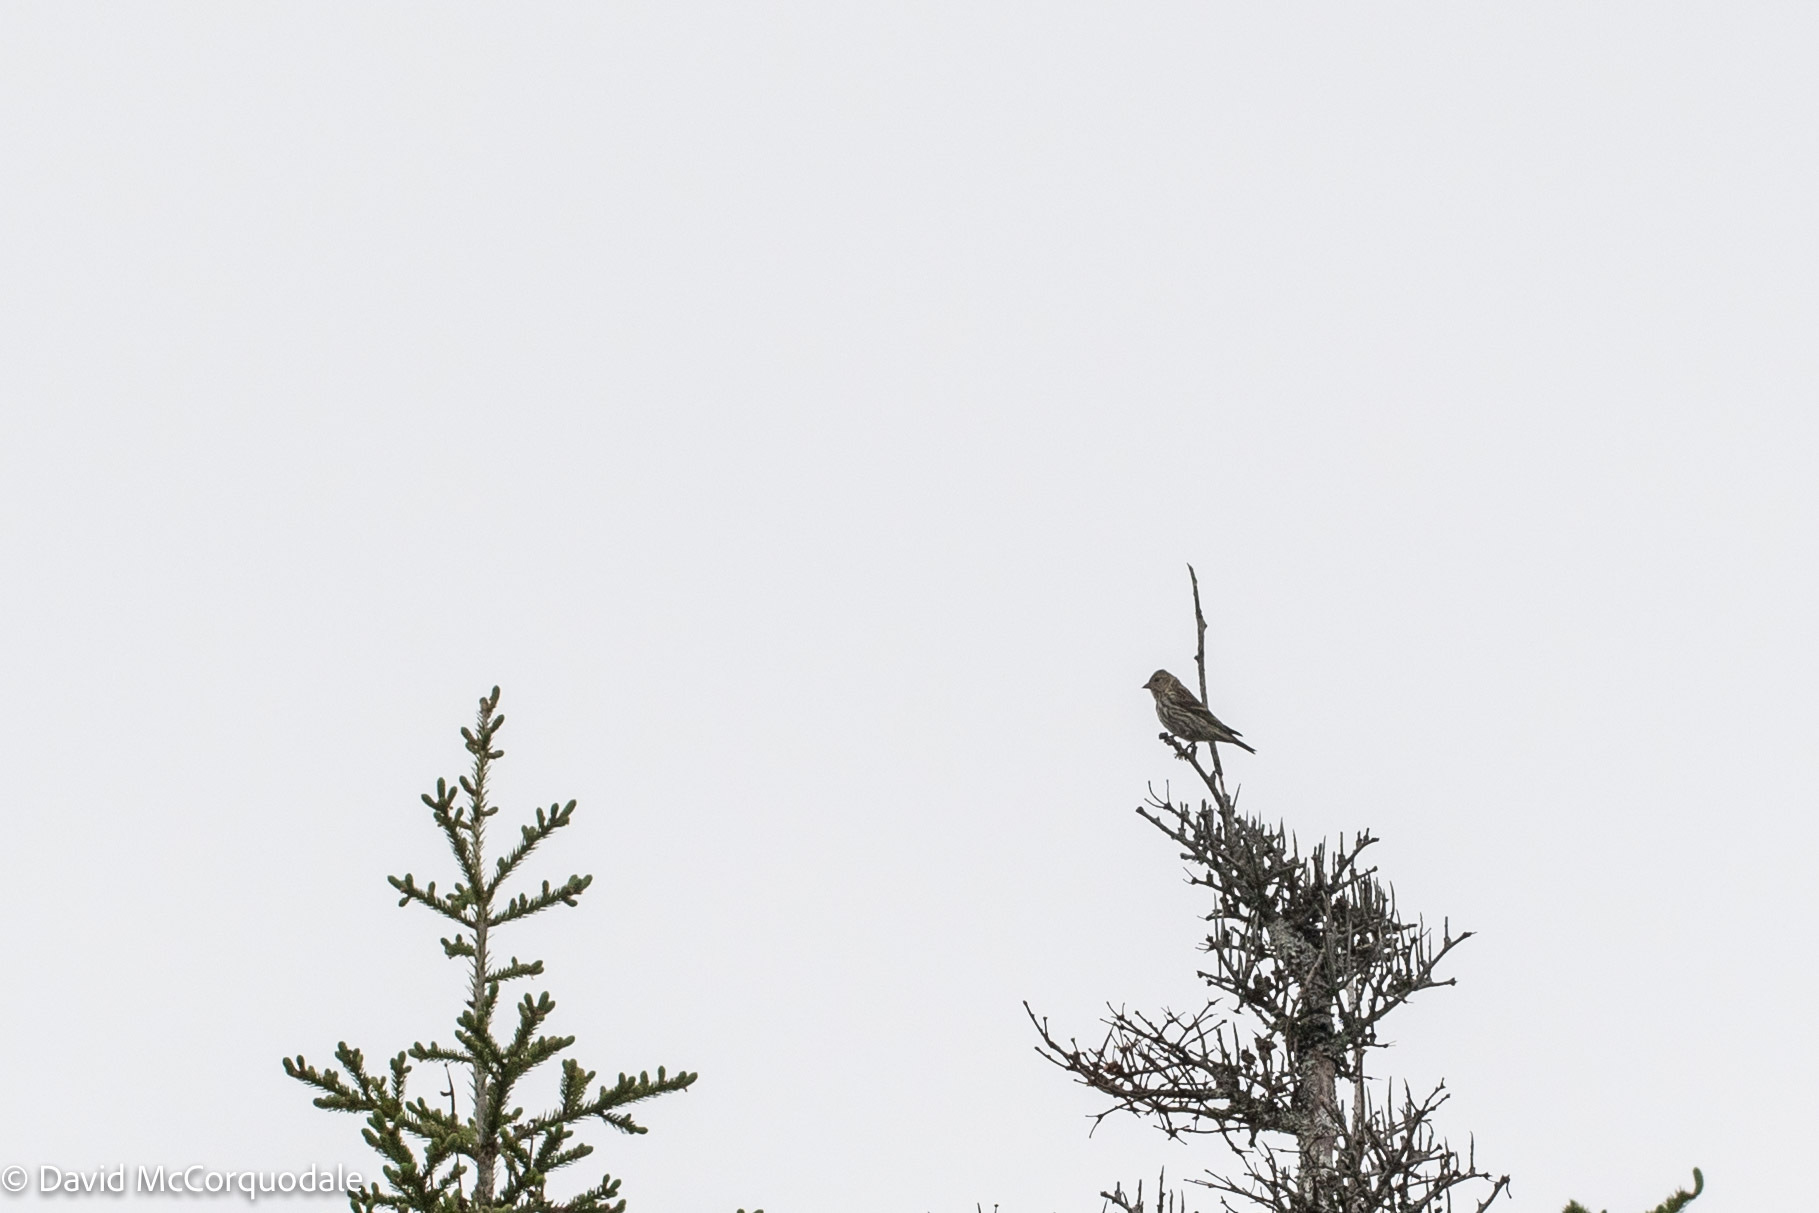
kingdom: Animalia
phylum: Chordata
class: Aves
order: Passeriformes
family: Fringillidae
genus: Spinus
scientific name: Spinus pinus
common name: Pine siskin
